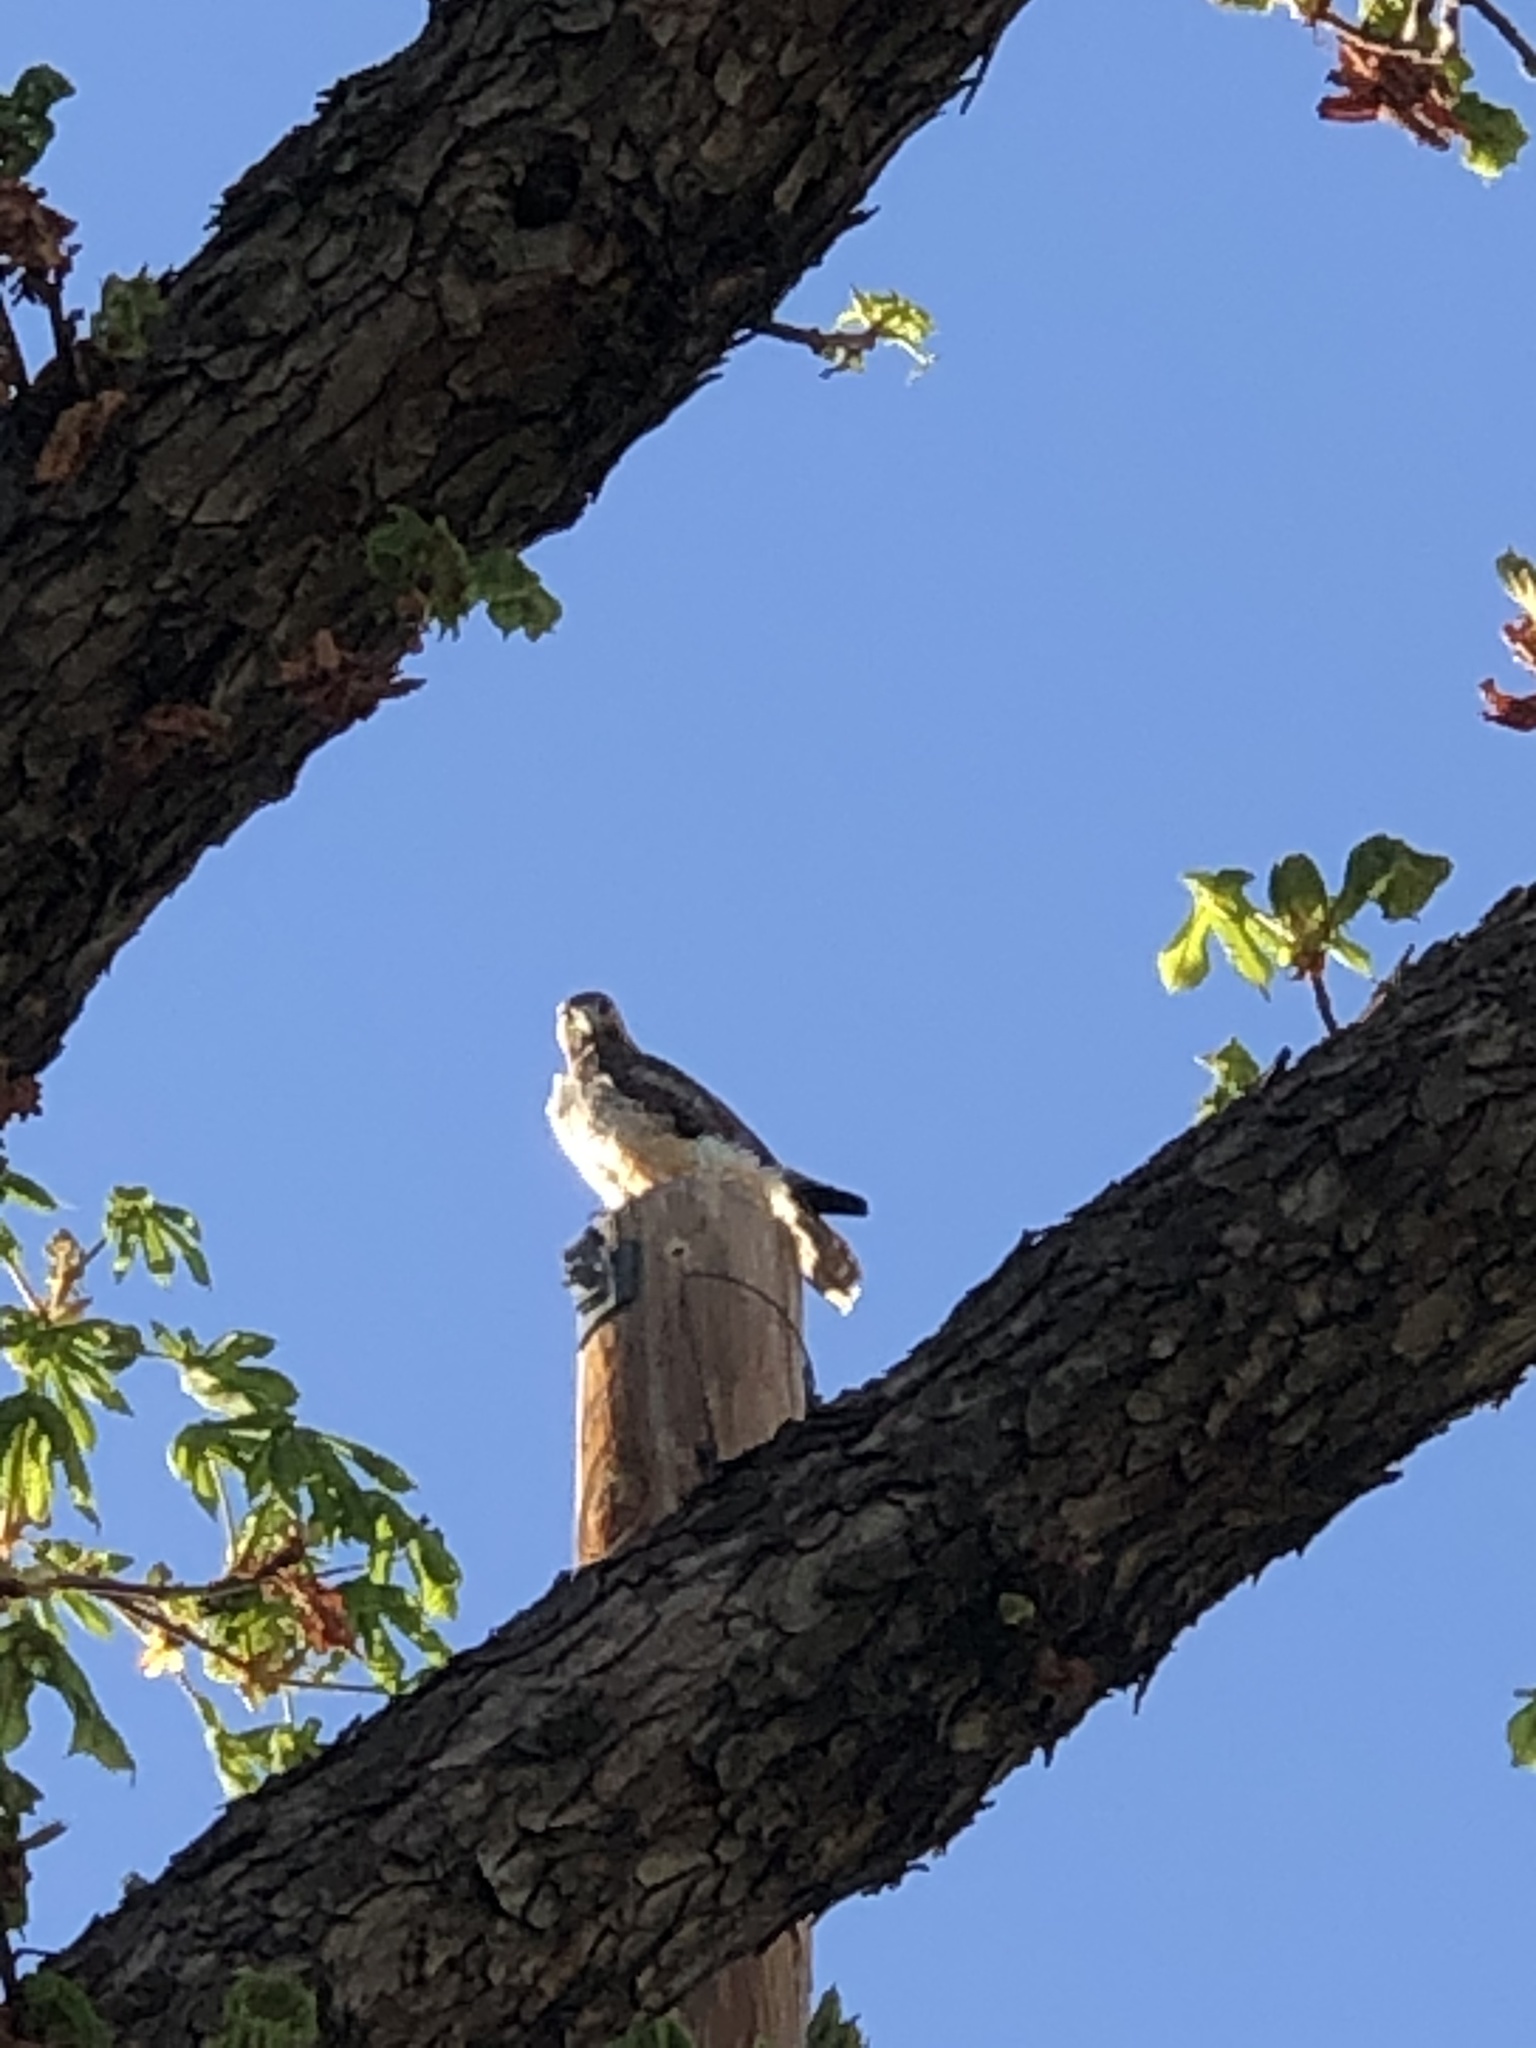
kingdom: Animalia
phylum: Chordata
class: Aves
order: Accipitriformes
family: Accipitridae
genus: Buteo
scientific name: Buteo jamaicensis
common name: Red-tailed hawk
